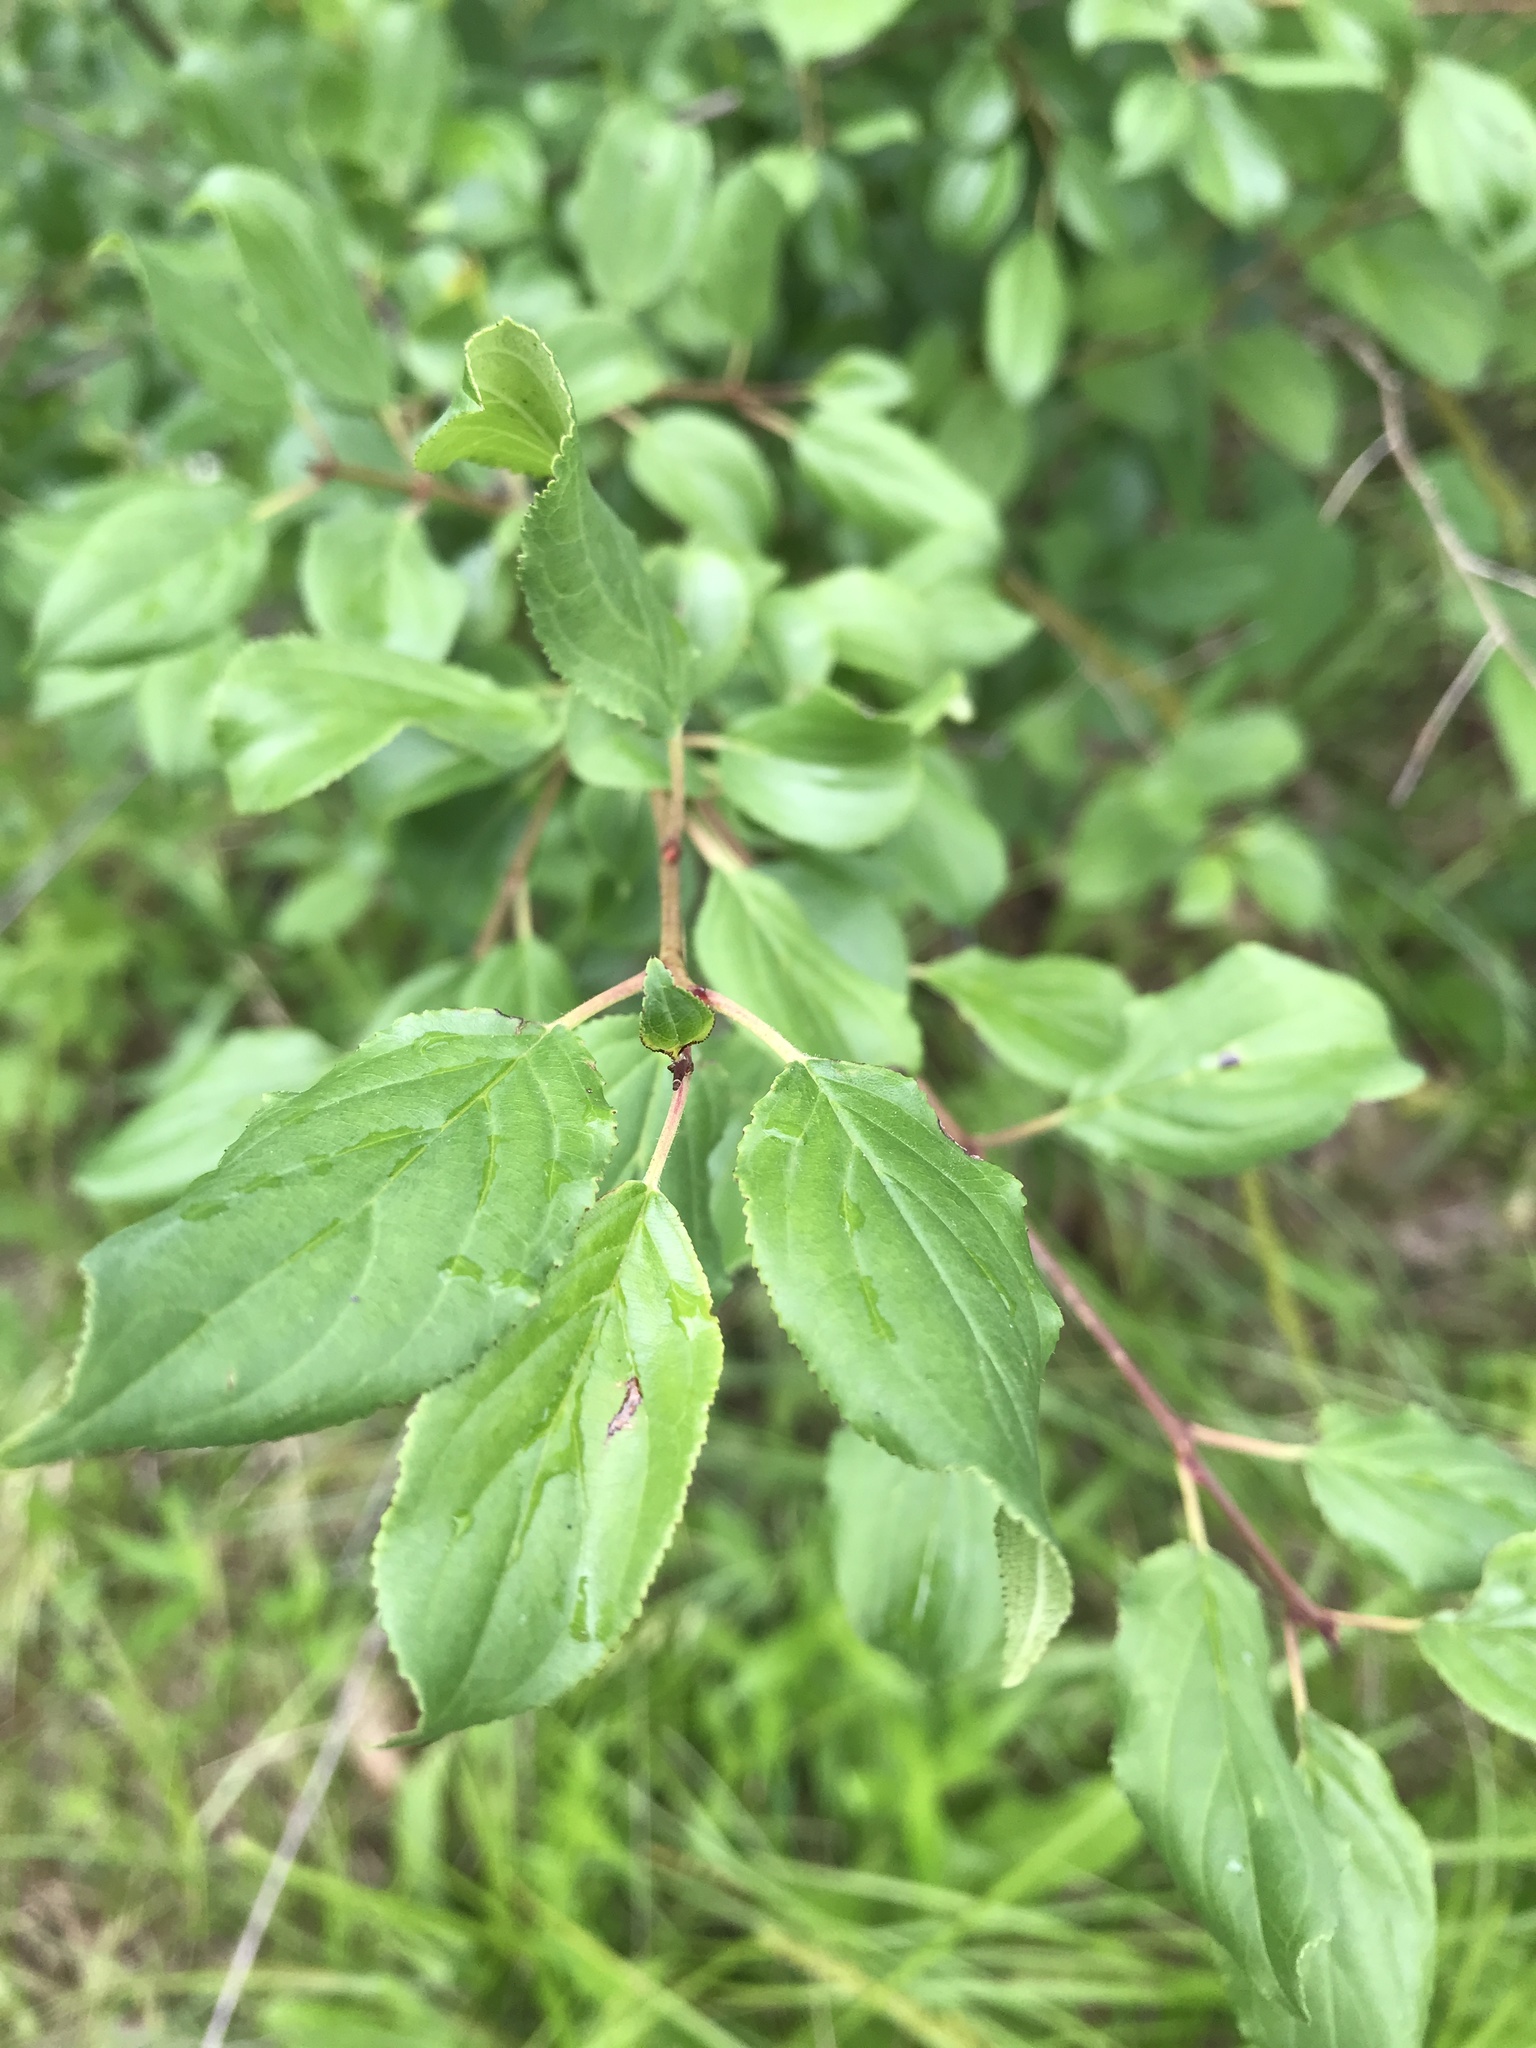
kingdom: Plantae
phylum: Tracheophyta
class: Magnoliopsida
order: Rosales
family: Rhamnaceae
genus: Rhamnus
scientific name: Rhamnus cathartica
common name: Common buckthorn
